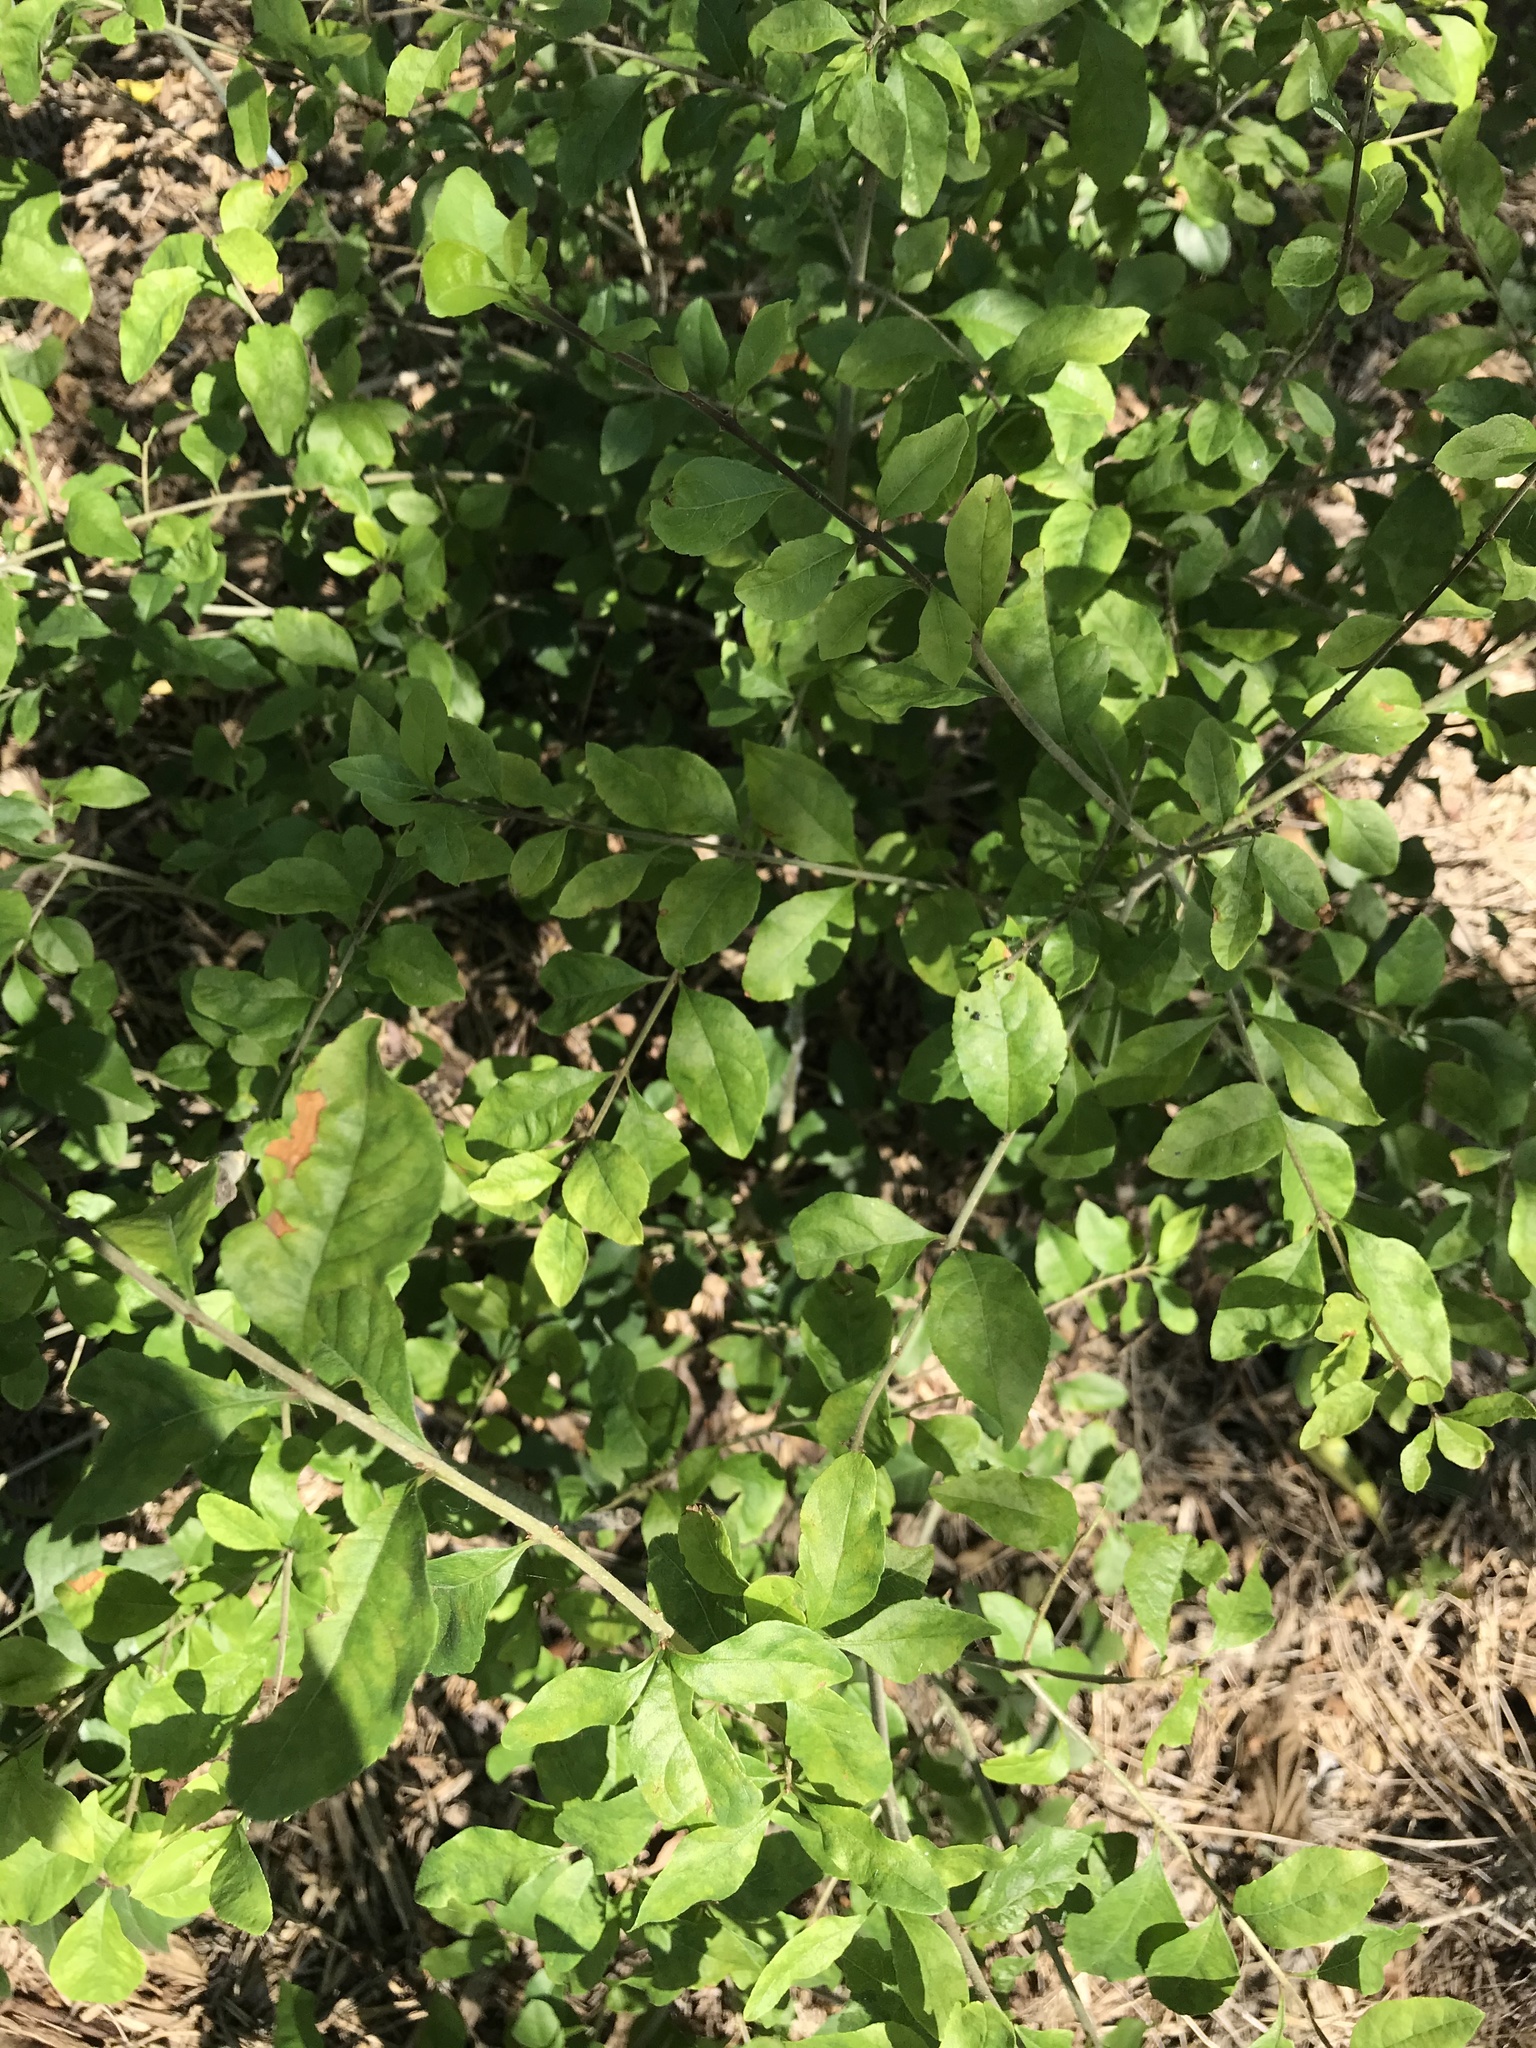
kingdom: Plantae
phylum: Tracheophyta
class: Magnoliopsida
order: Lamiales
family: Oleaceae
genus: Forestiera
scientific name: Forestiera pubescens
